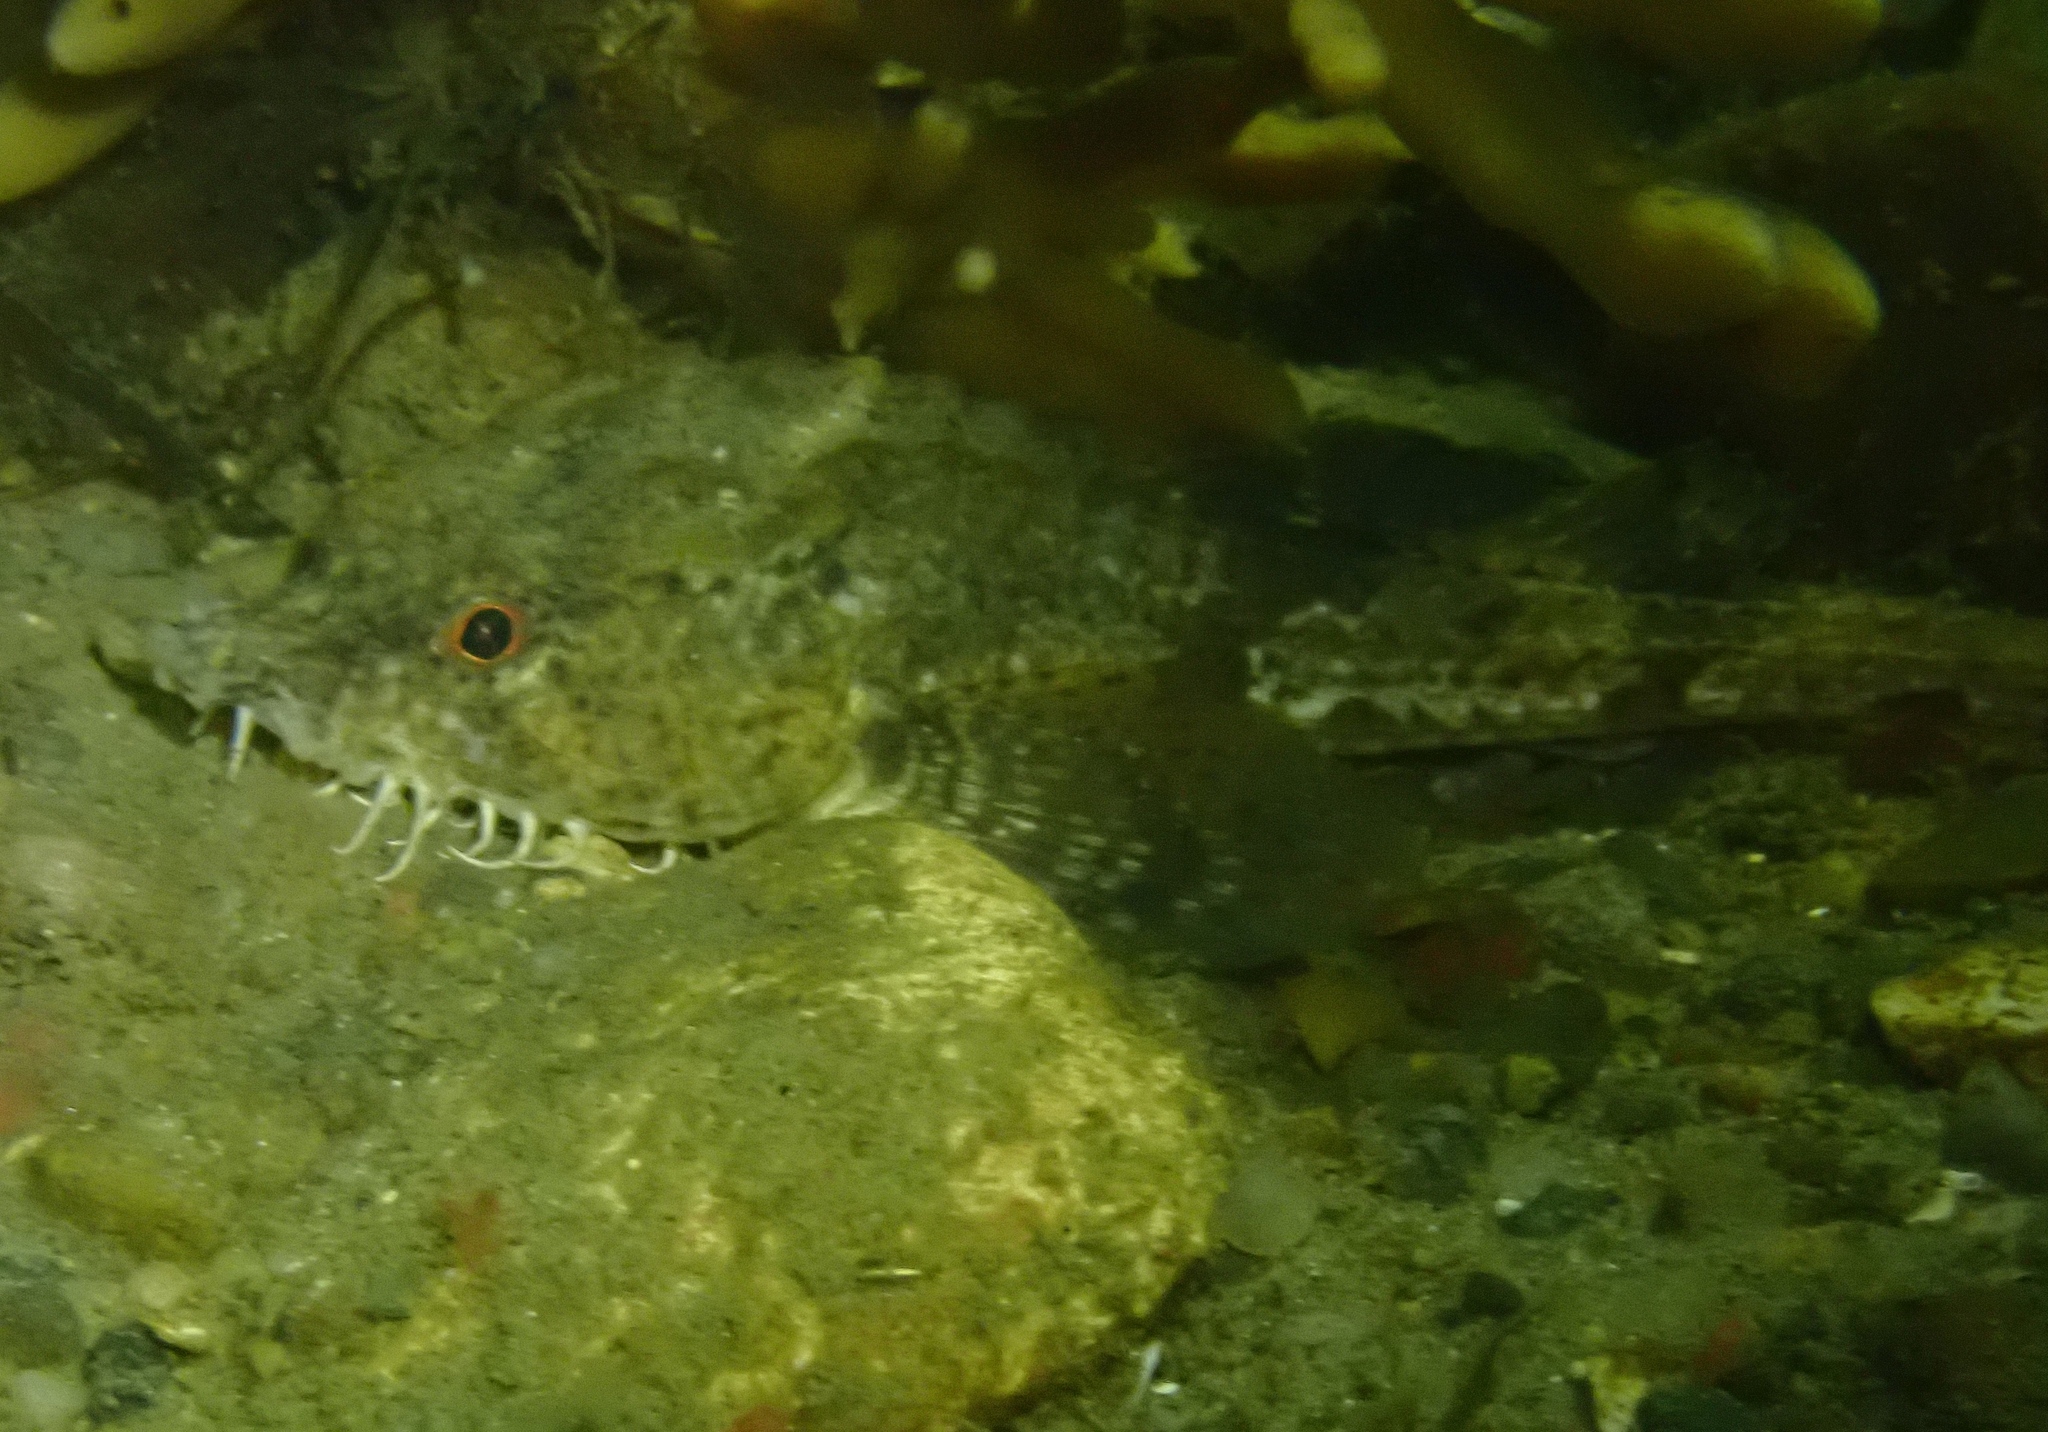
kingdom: Animalia
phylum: Chordata
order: Scorpaeniformes
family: Agonidae
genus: Agonus
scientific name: Agonus cataphractus
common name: Pogge
